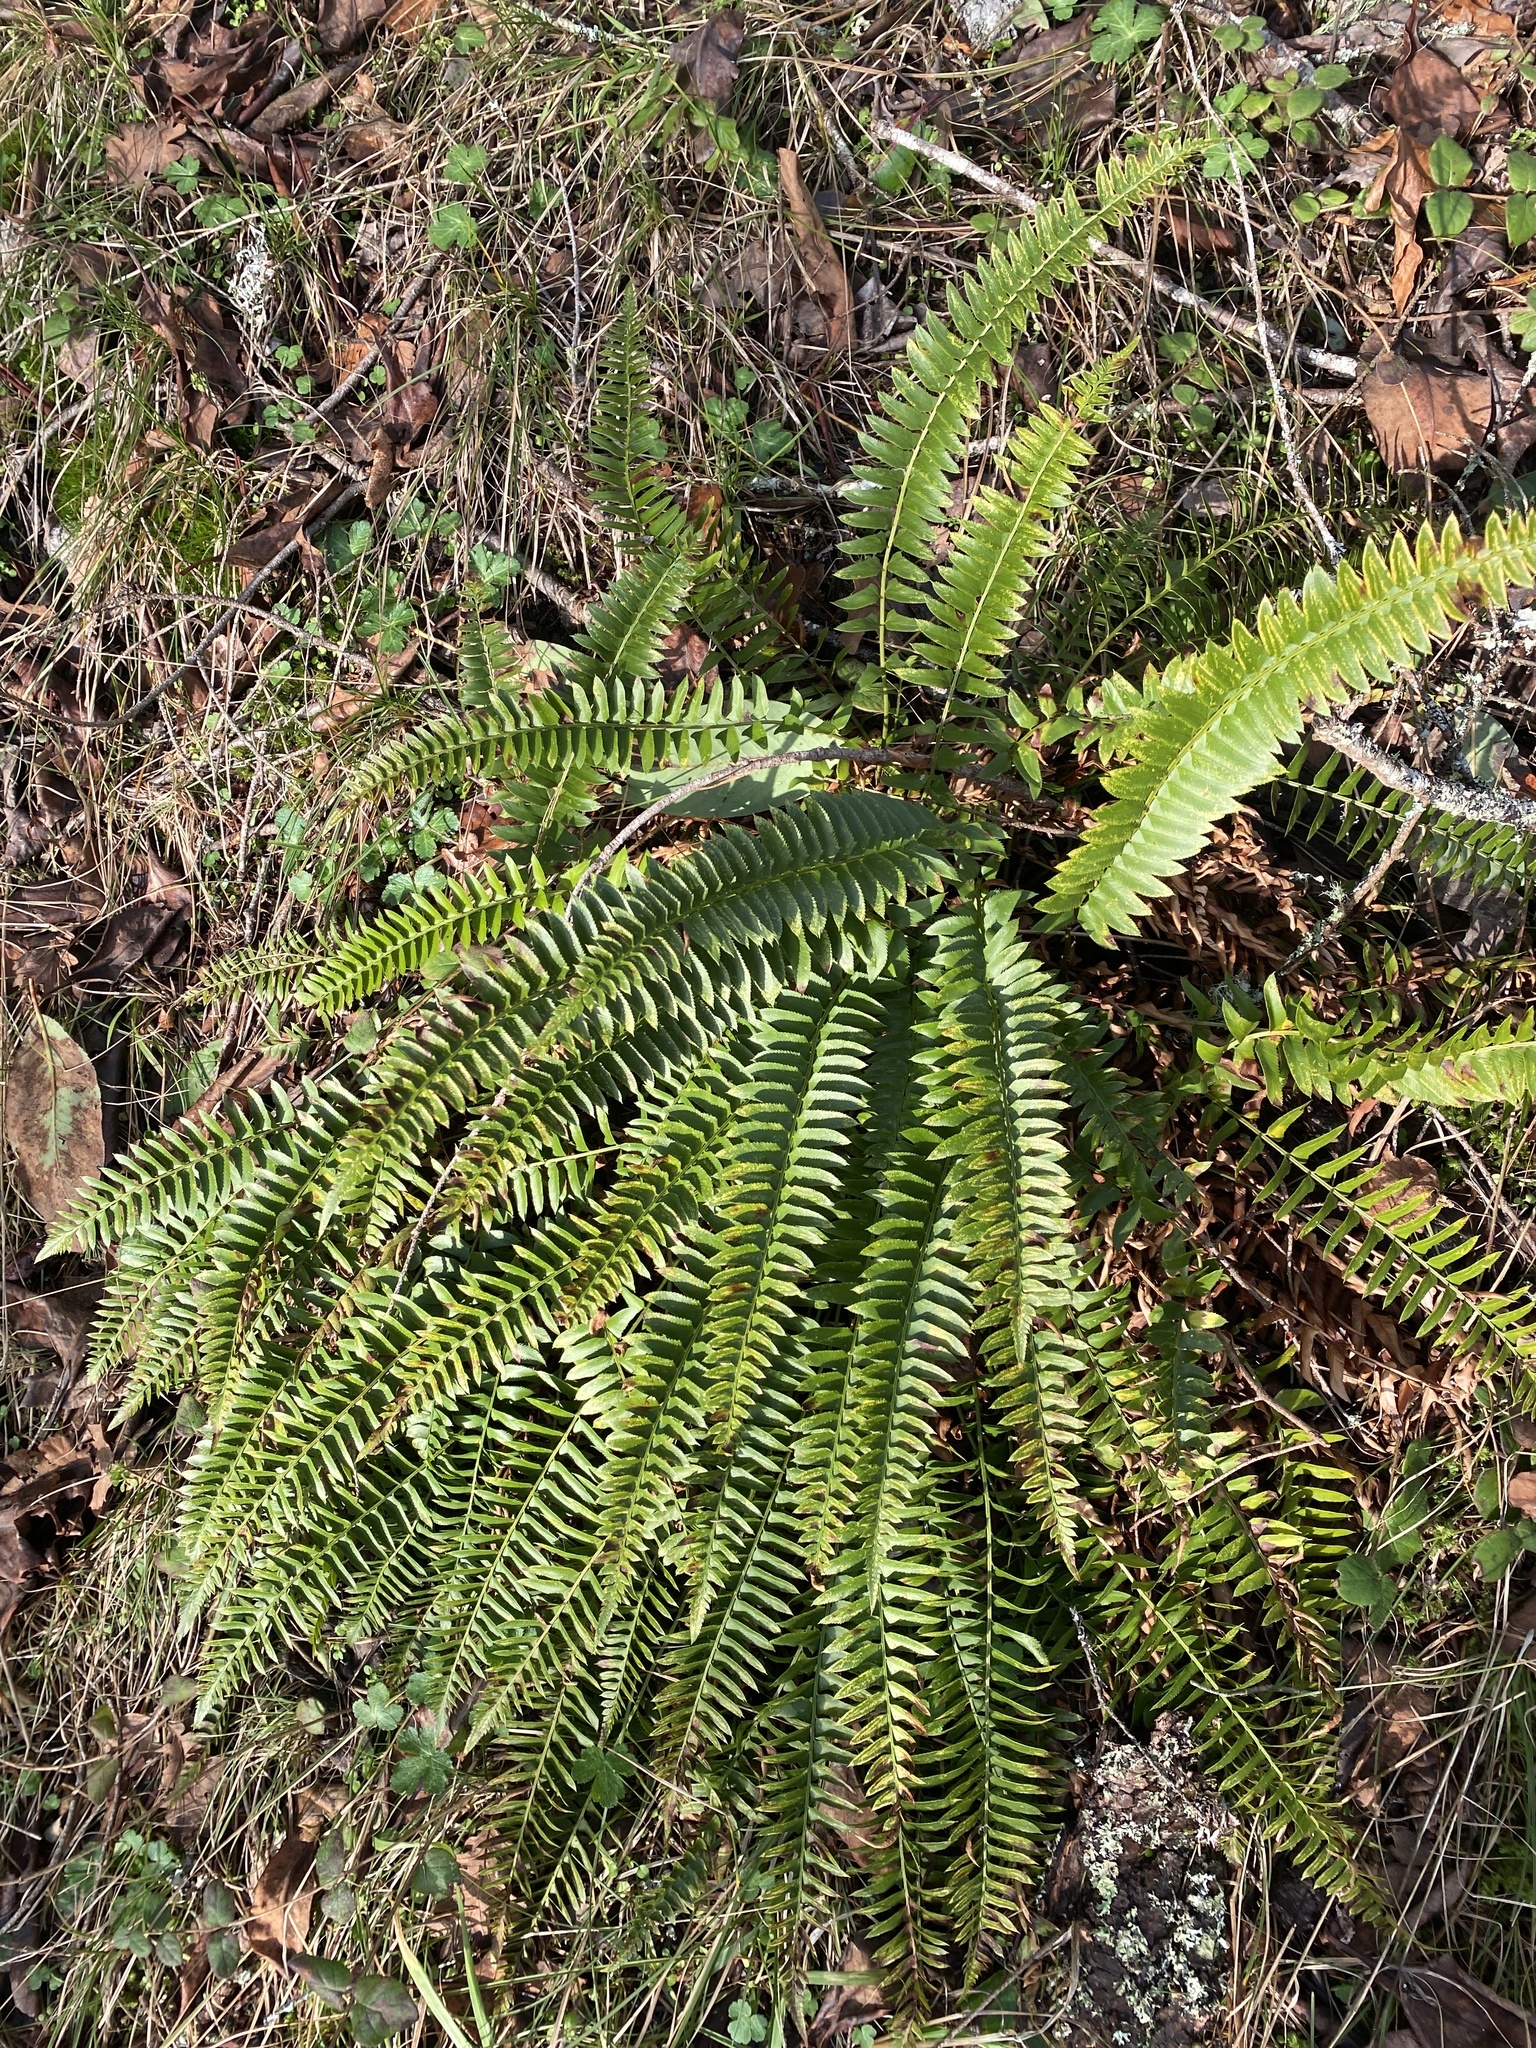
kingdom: Plantae
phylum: Tracheophyta
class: Polypodiopsida
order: Polypodiales
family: Dryopteridaceae
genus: Polystichum
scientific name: Polystichum imbricans
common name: Dwarf western sword fern
